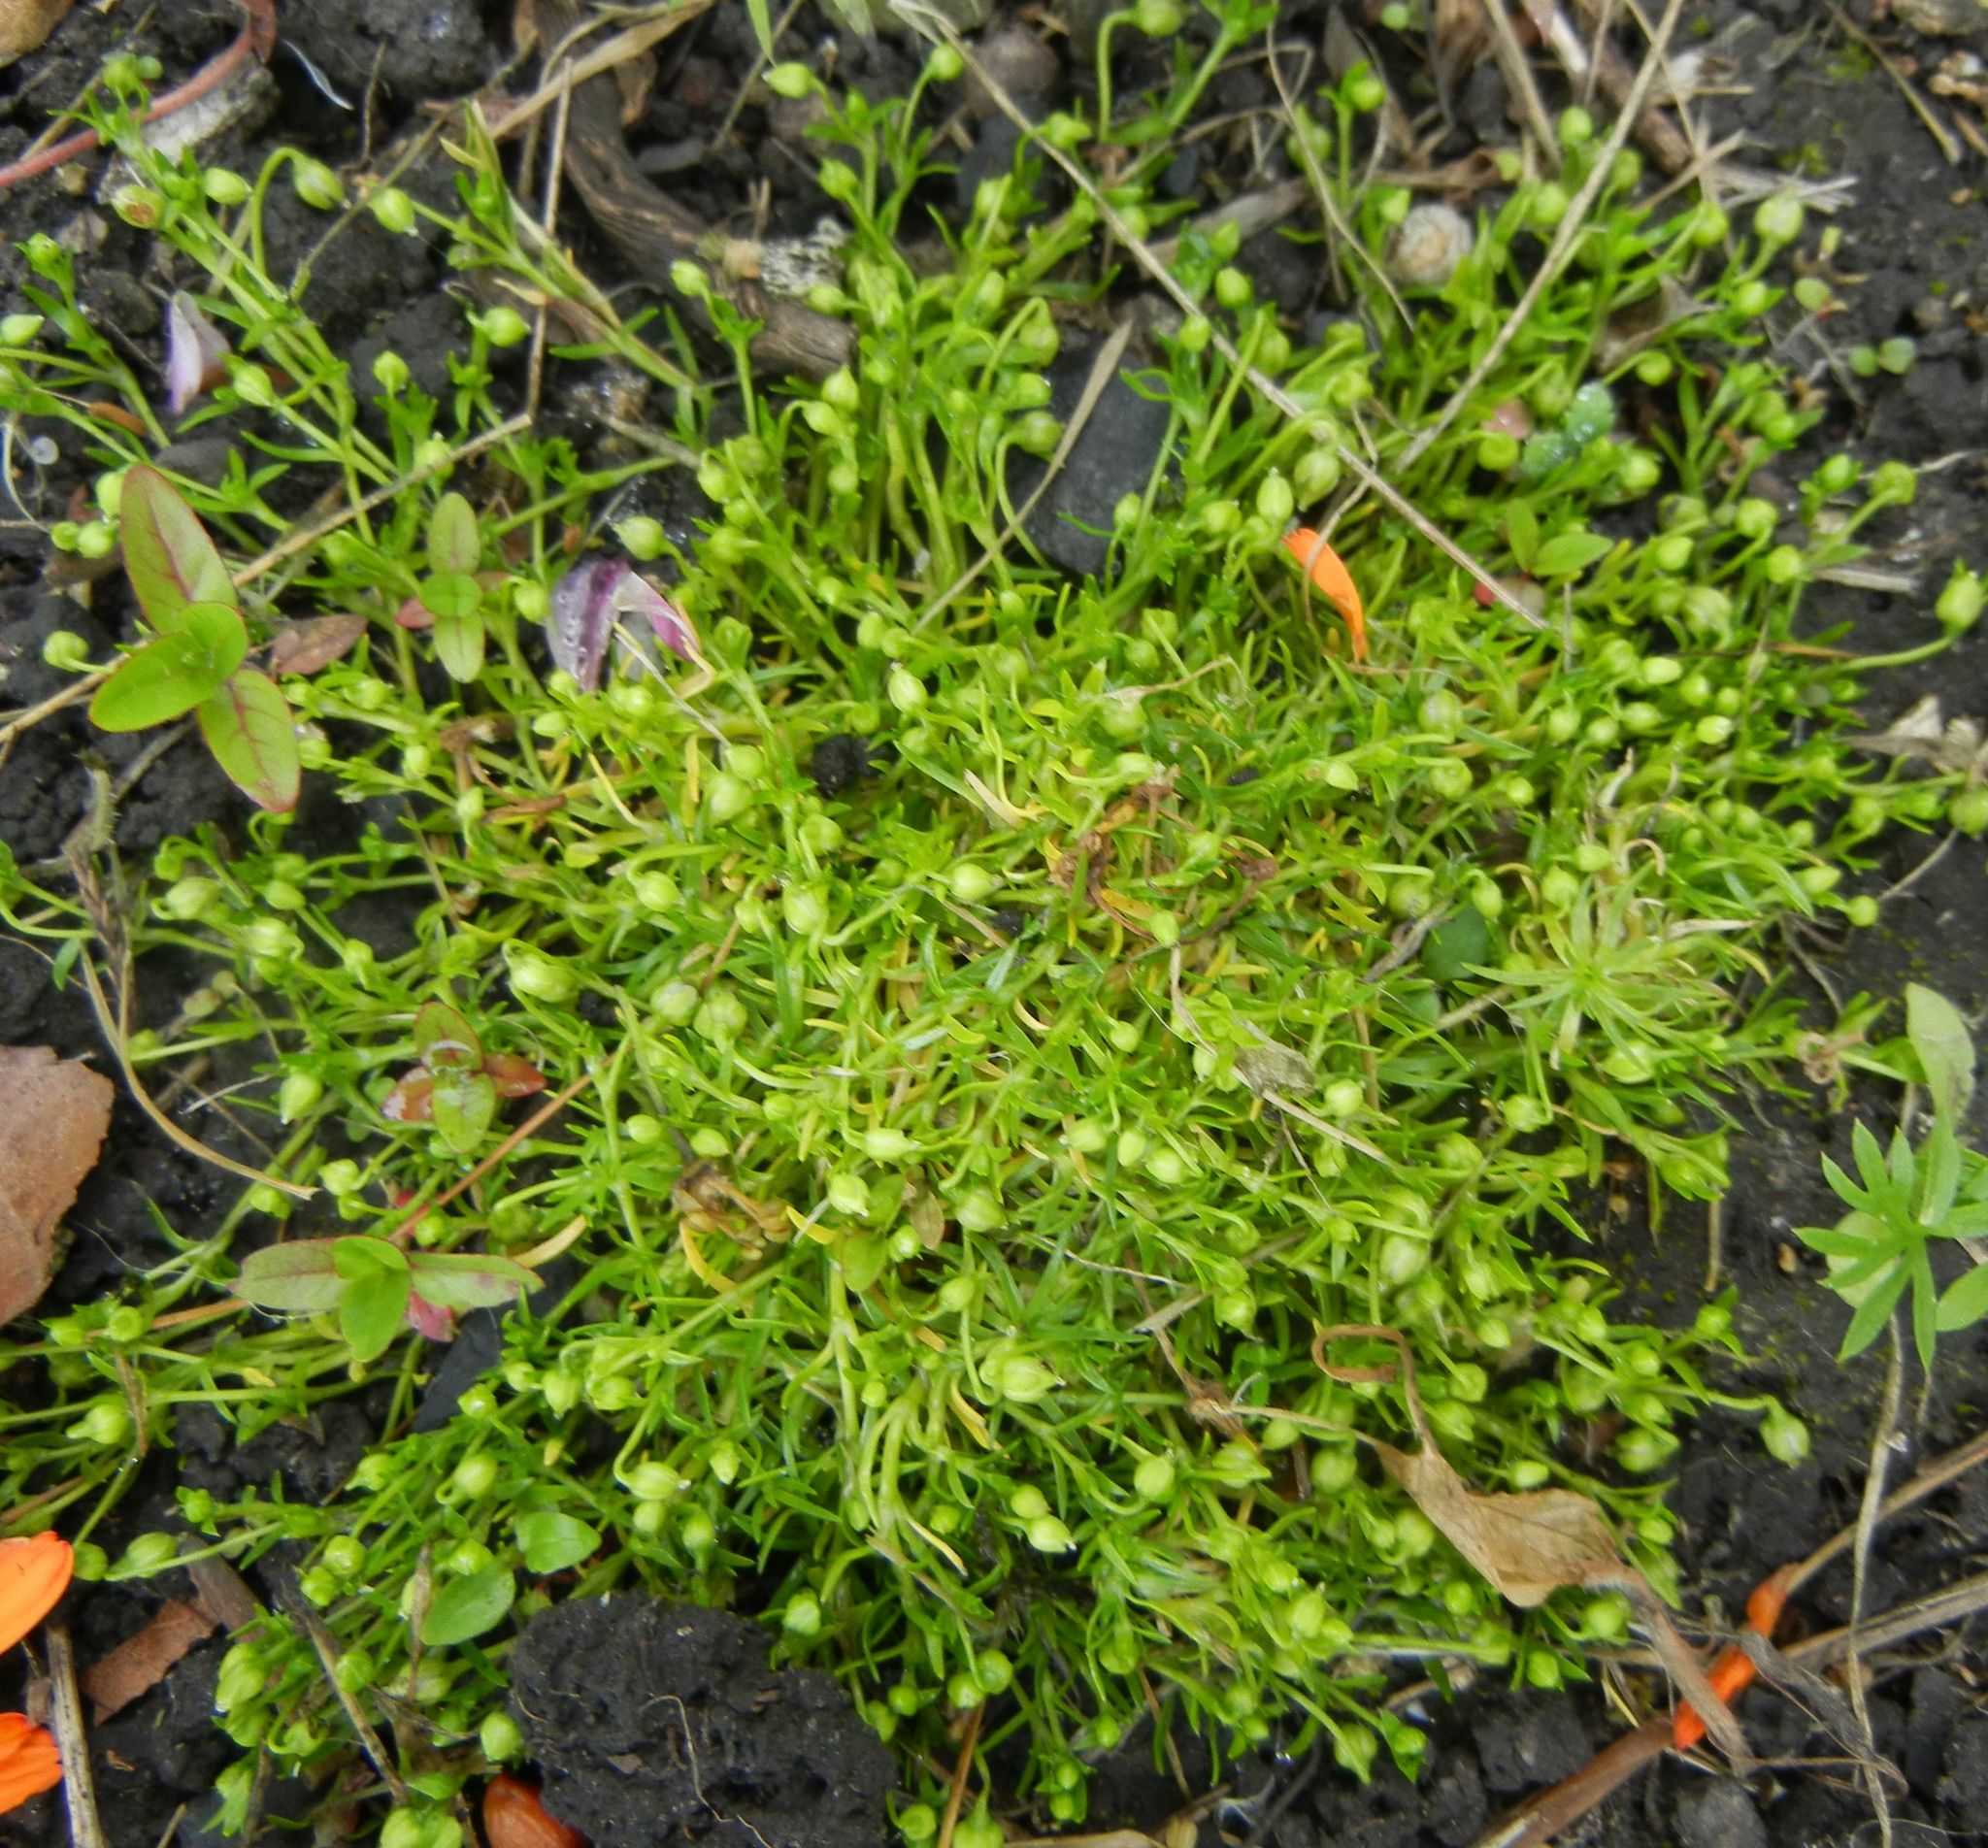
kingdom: Plantae
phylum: Tracheophyta
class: Magnoliopsida
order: Caryophyllales
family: Caryophyllaceae
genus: Sagina
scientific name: Sagina procumbens
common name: Procumbent pearlwort
